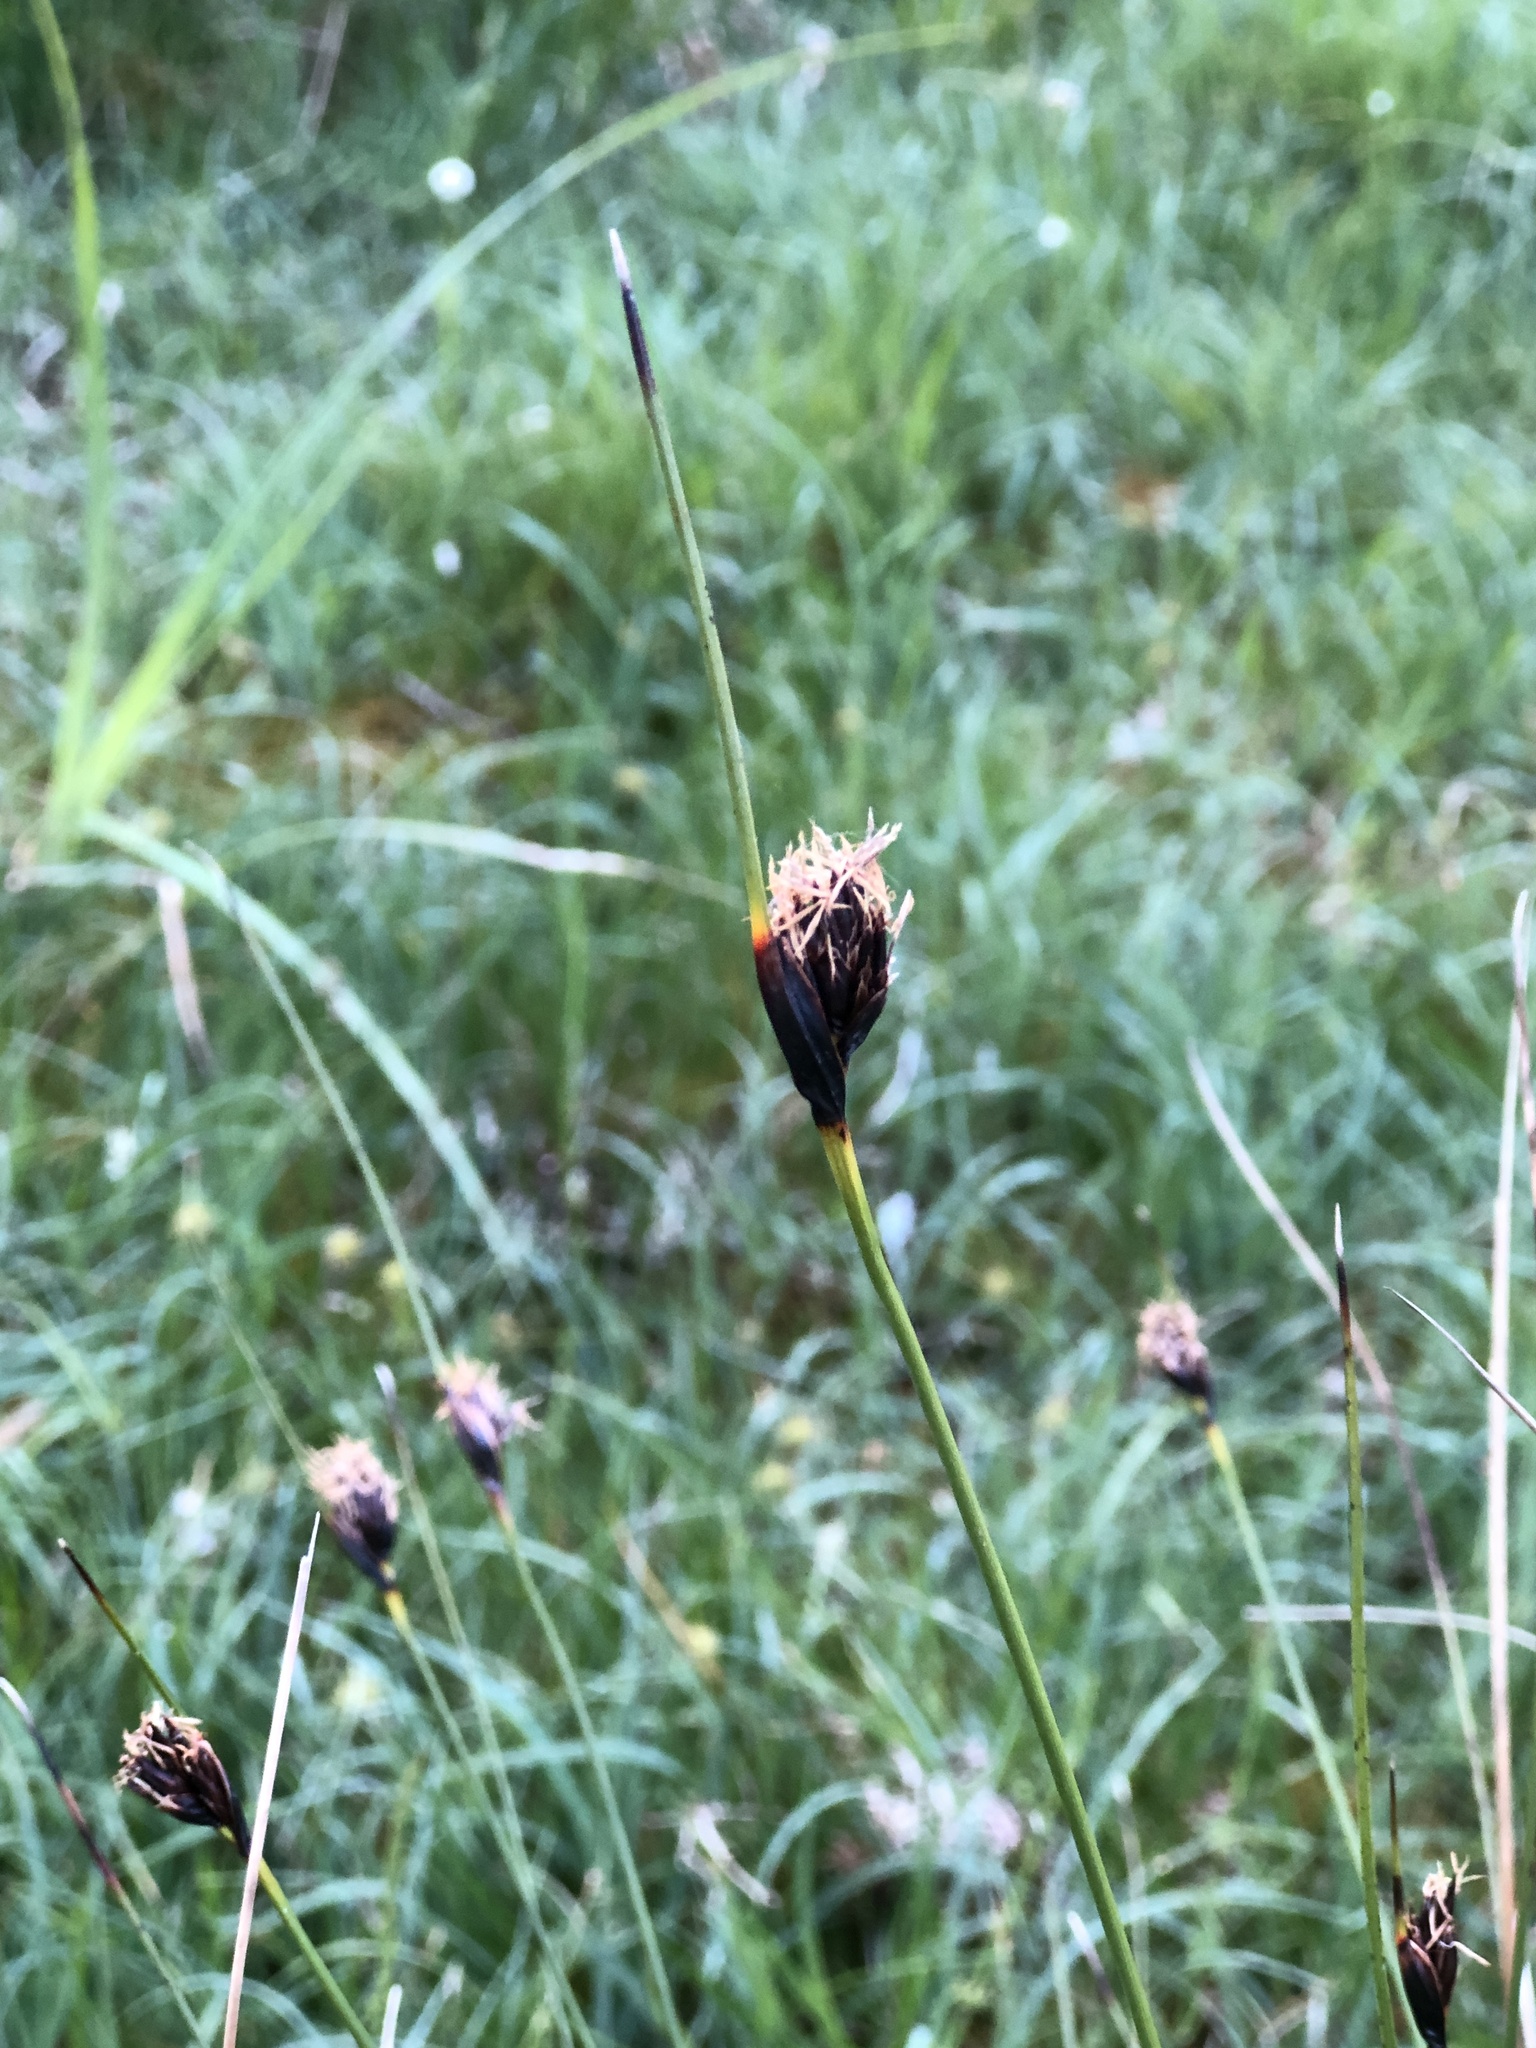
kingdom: Plantae
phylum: Tracheophyta
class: Liliopsida
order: Poales
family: Cyperaceae
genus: Schoenus
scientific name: Schoenus nigricans
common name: Black bog-rush
